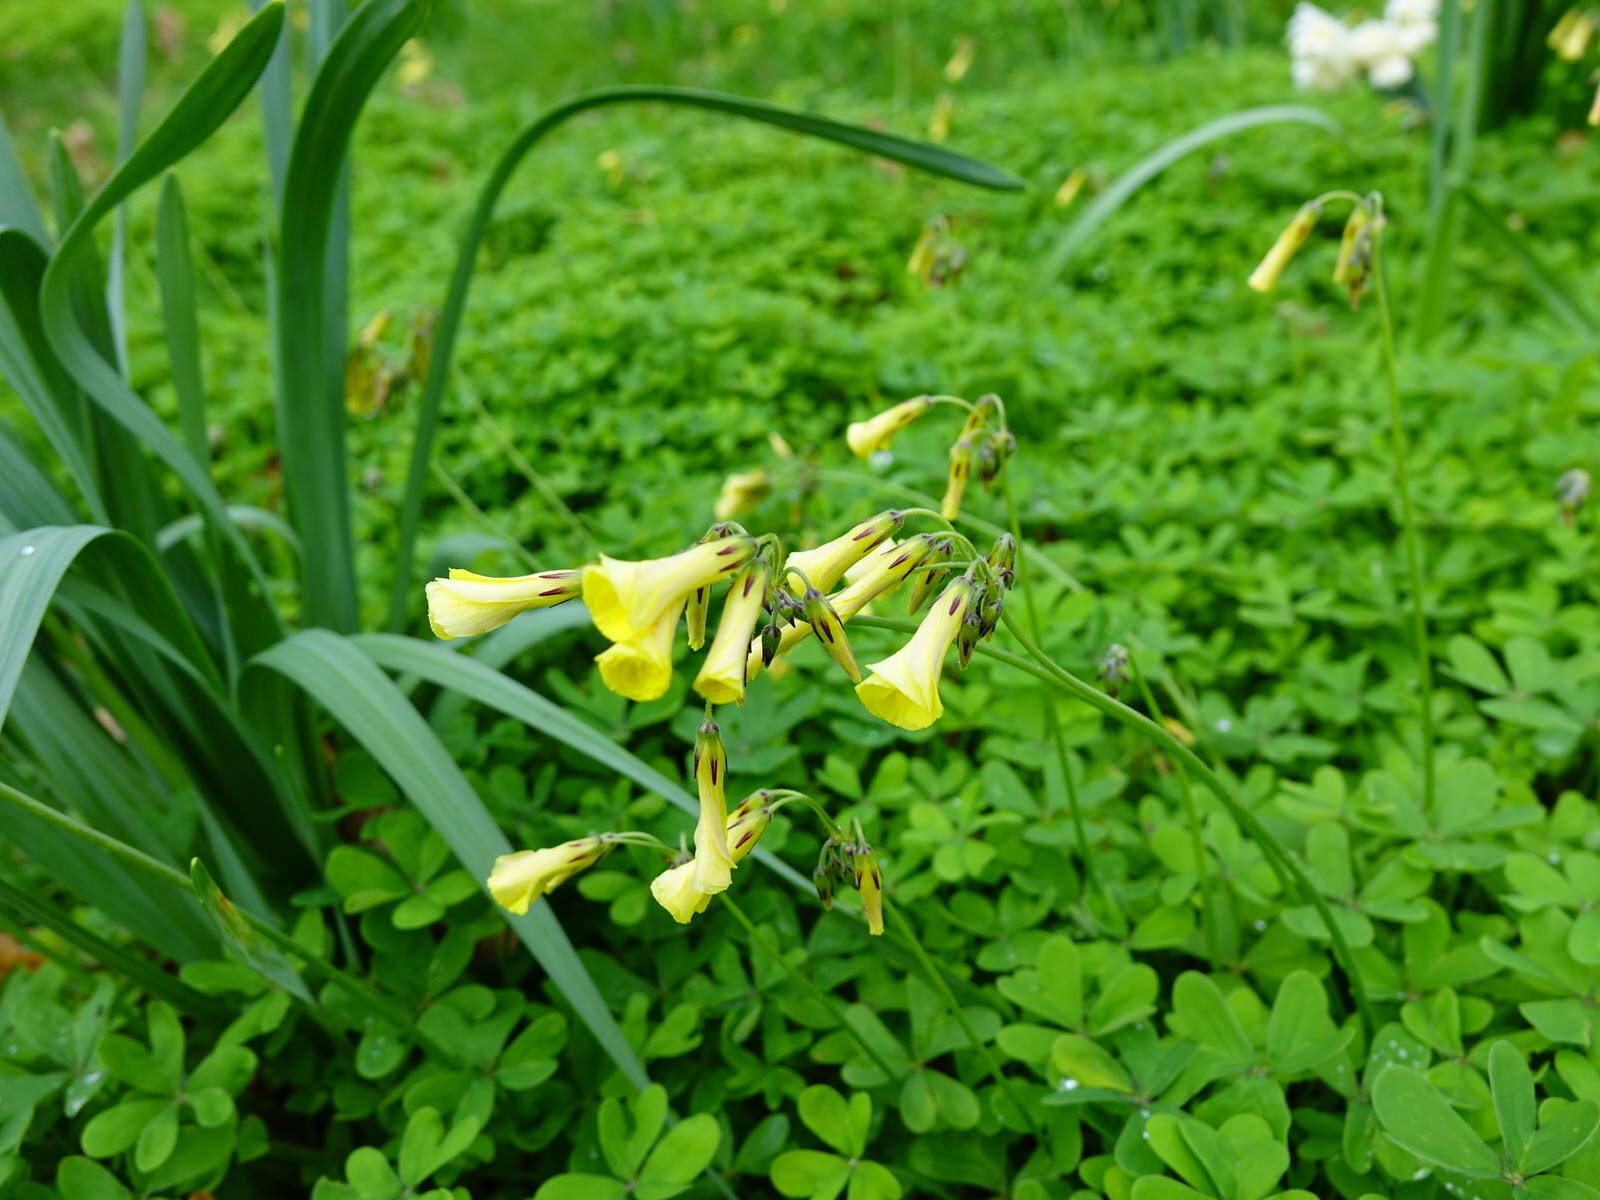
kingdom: Plantae
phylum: Tracheophyta
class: Magnoliopsida
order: Oxalidales
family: Oxalidaceae
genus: Oxalis
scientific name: Oxalis pes-caprae
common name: Bermuda-buttercup
